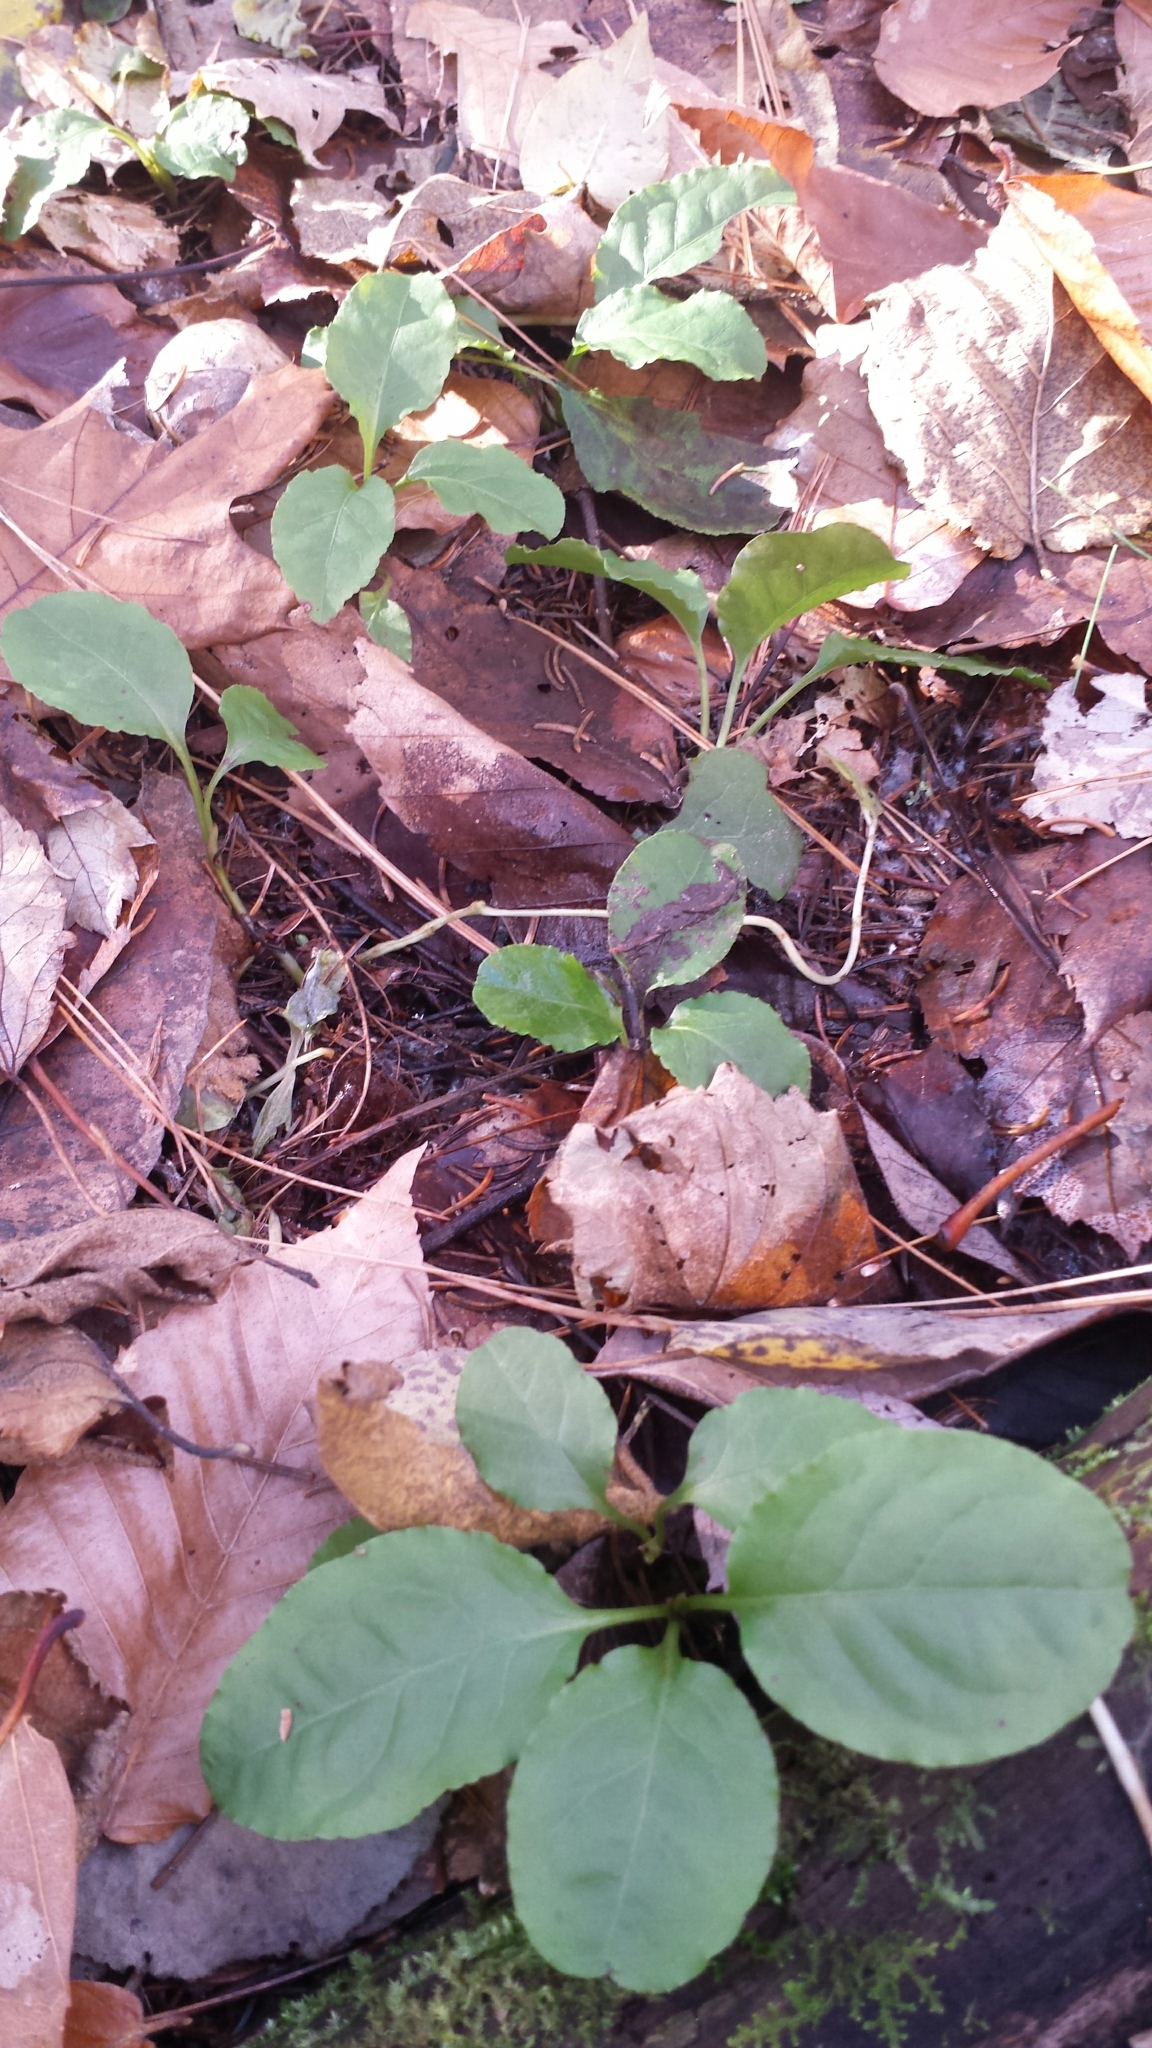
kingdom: Plantae
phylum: Tracheophyta
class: Magnoliopsida
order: Ericales
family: Ericaceae
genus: Pyrola
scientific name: Pyrola elliptica
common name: Shinleaf
